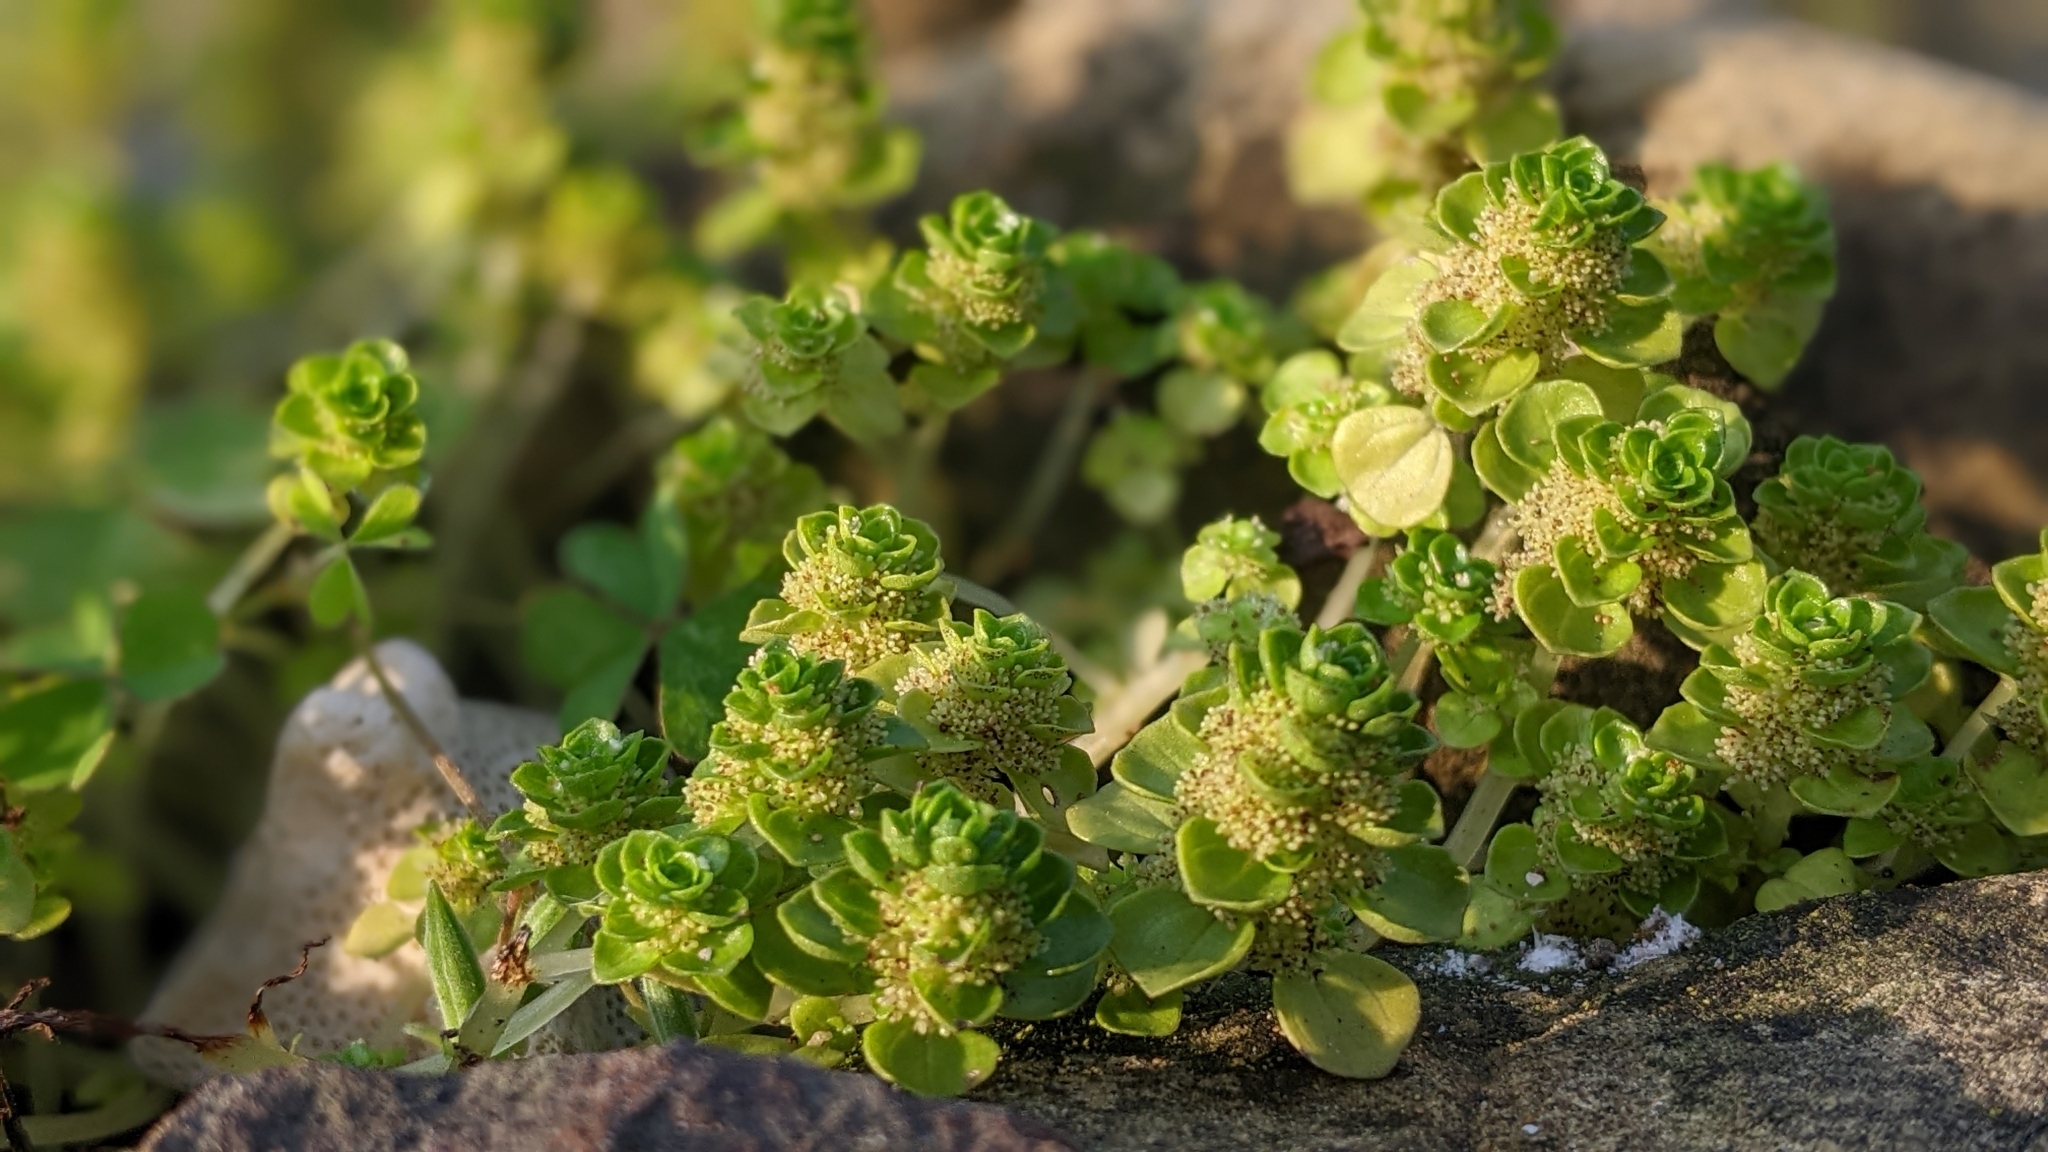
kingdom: Plantae
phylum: Tracheophyta
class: Magnoliopsida
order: Rosales
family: Urticaceae
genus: Pilea
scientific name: Pilea peploides
